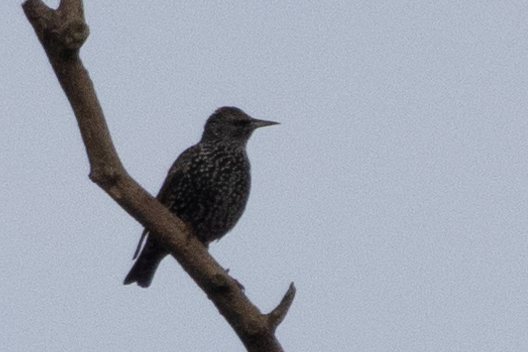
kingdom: Animalia
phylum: Chordata
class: Aves
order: Passeriformes
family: Sturnidae
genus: Sturnus
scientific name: Sturnus vulgaris
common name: Common starling
